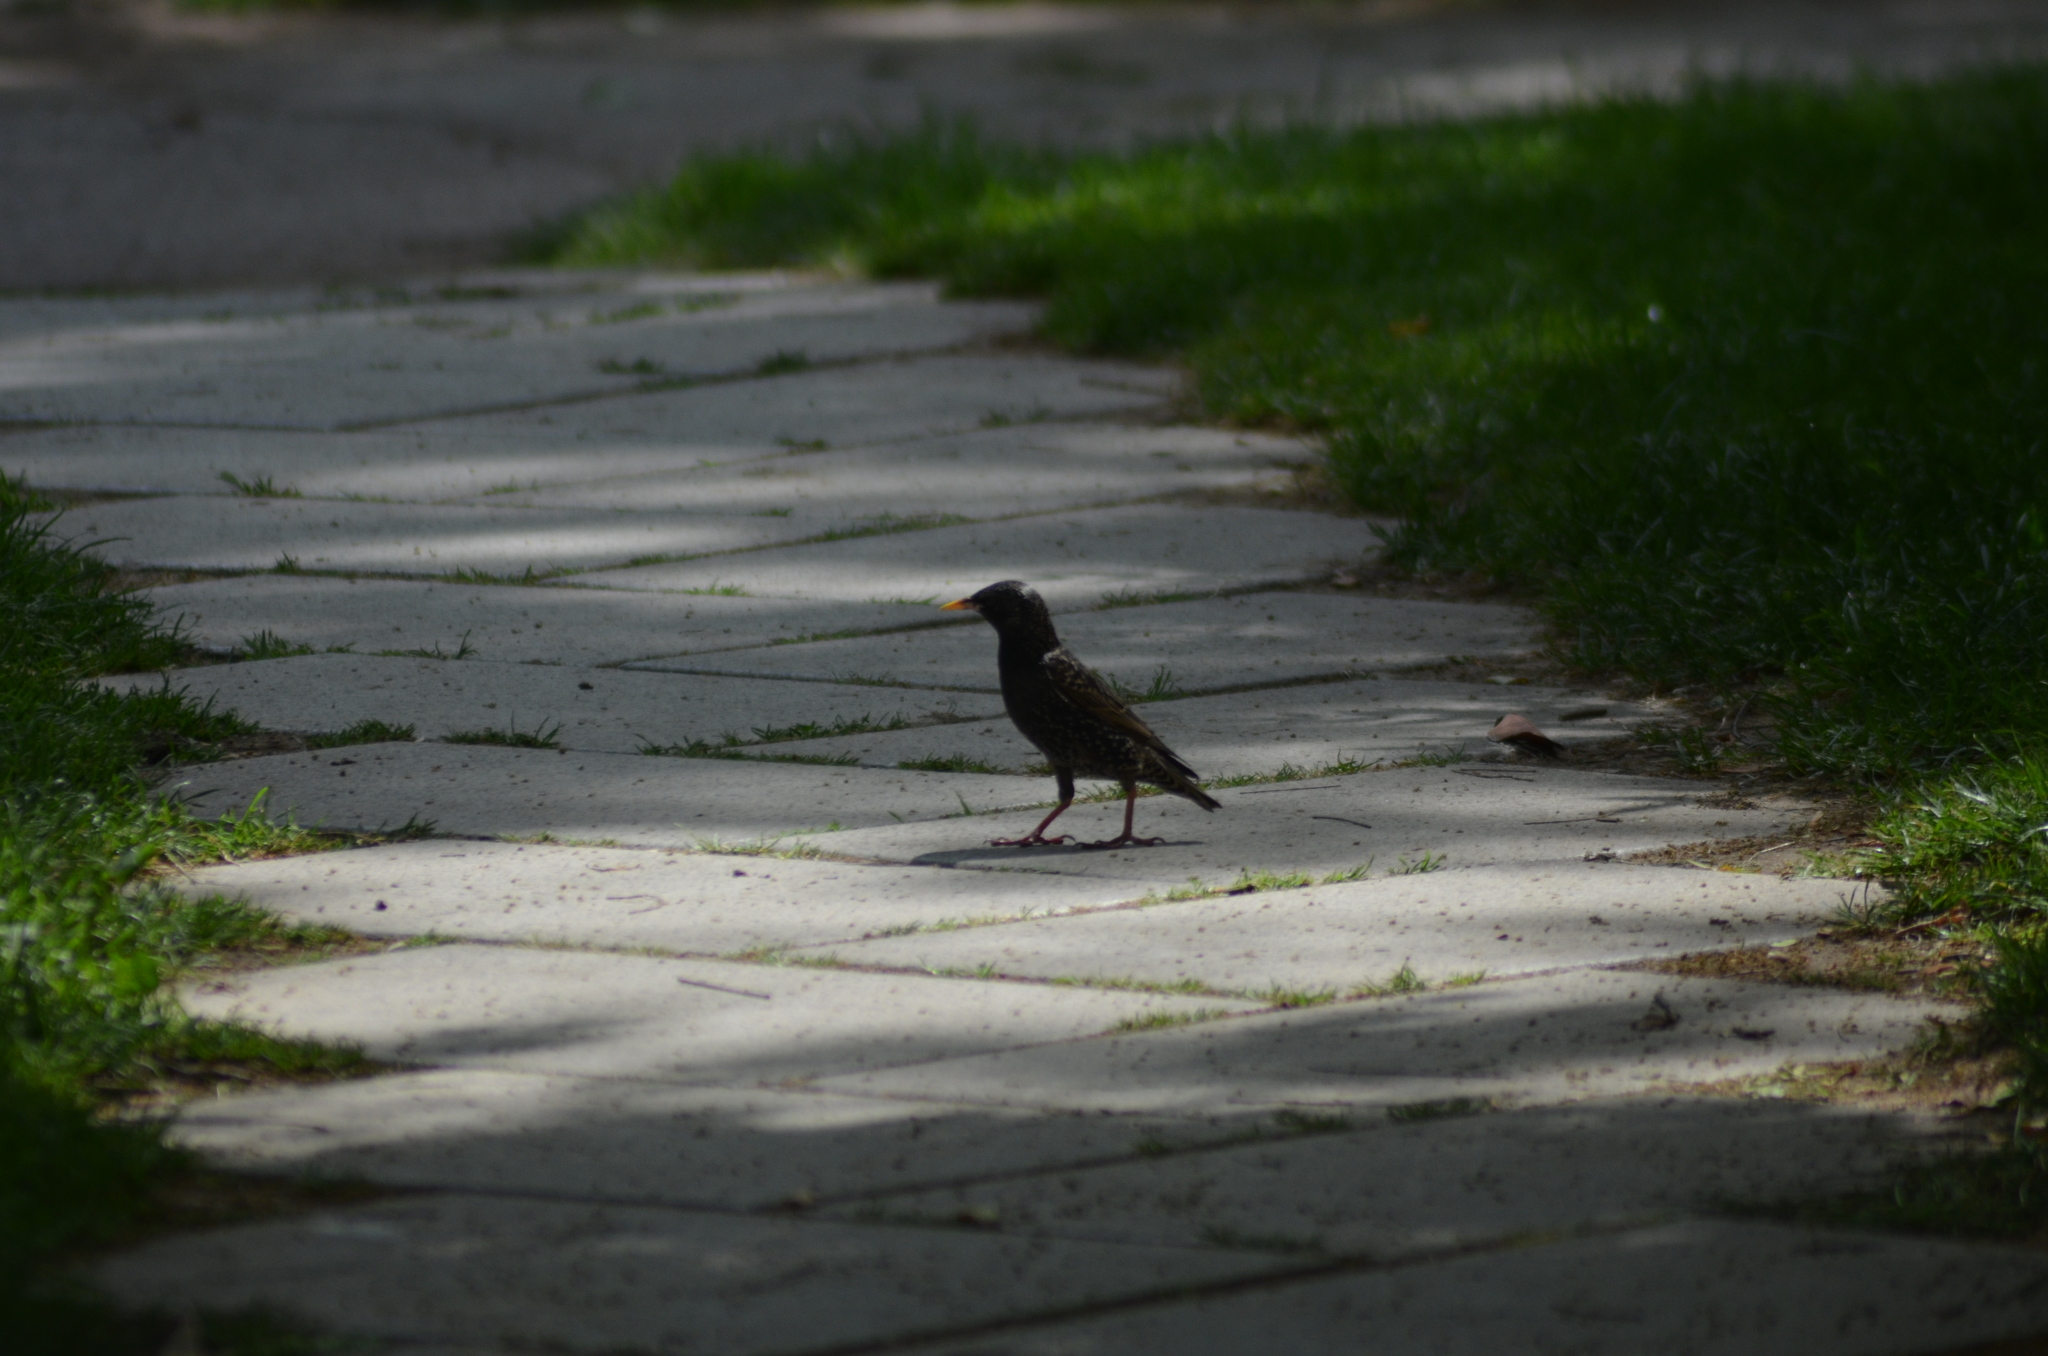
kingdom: Animalia
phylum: Chordata
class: Aves
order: Passeriformes
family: Sturnidae
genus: Sturnus
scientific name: Sturnus vulgaris
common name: Common starling
